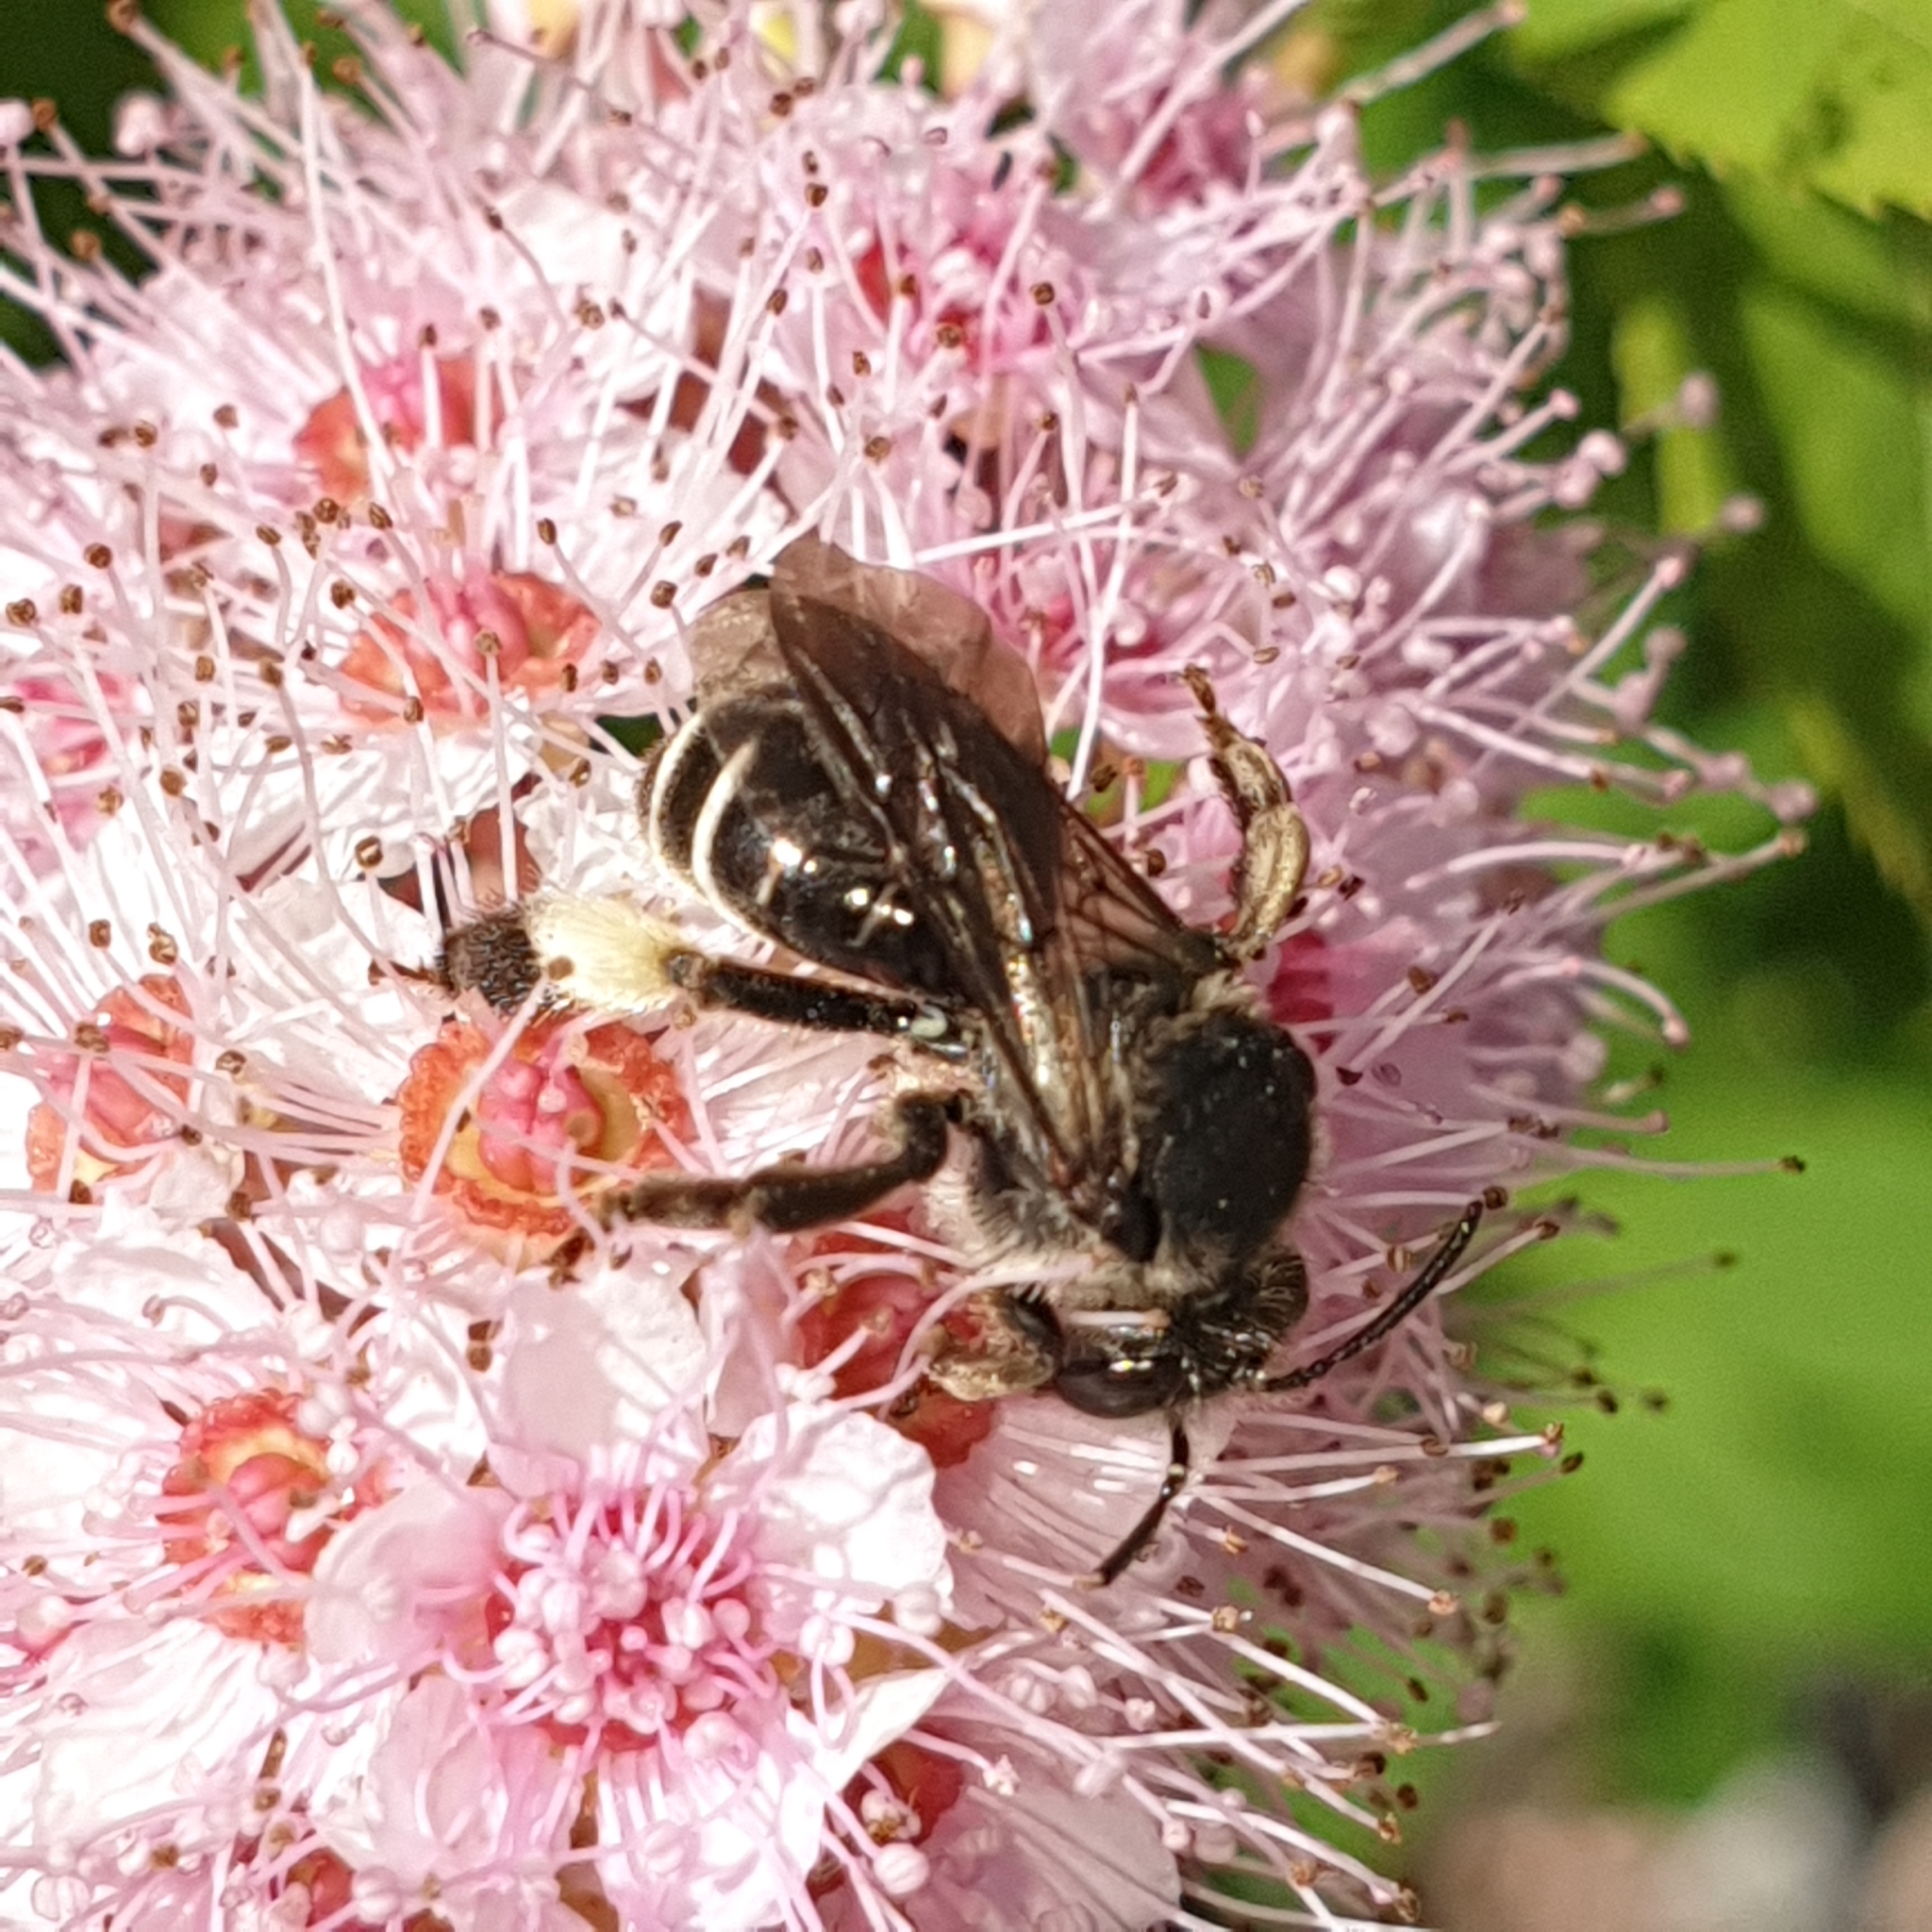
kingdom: Animalia
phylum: Arthropoda
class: Insecta
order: Hymenoptera
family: Melittidae
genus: Macropis
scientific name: Macropis europaea
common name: Yellow loosestrife bee
